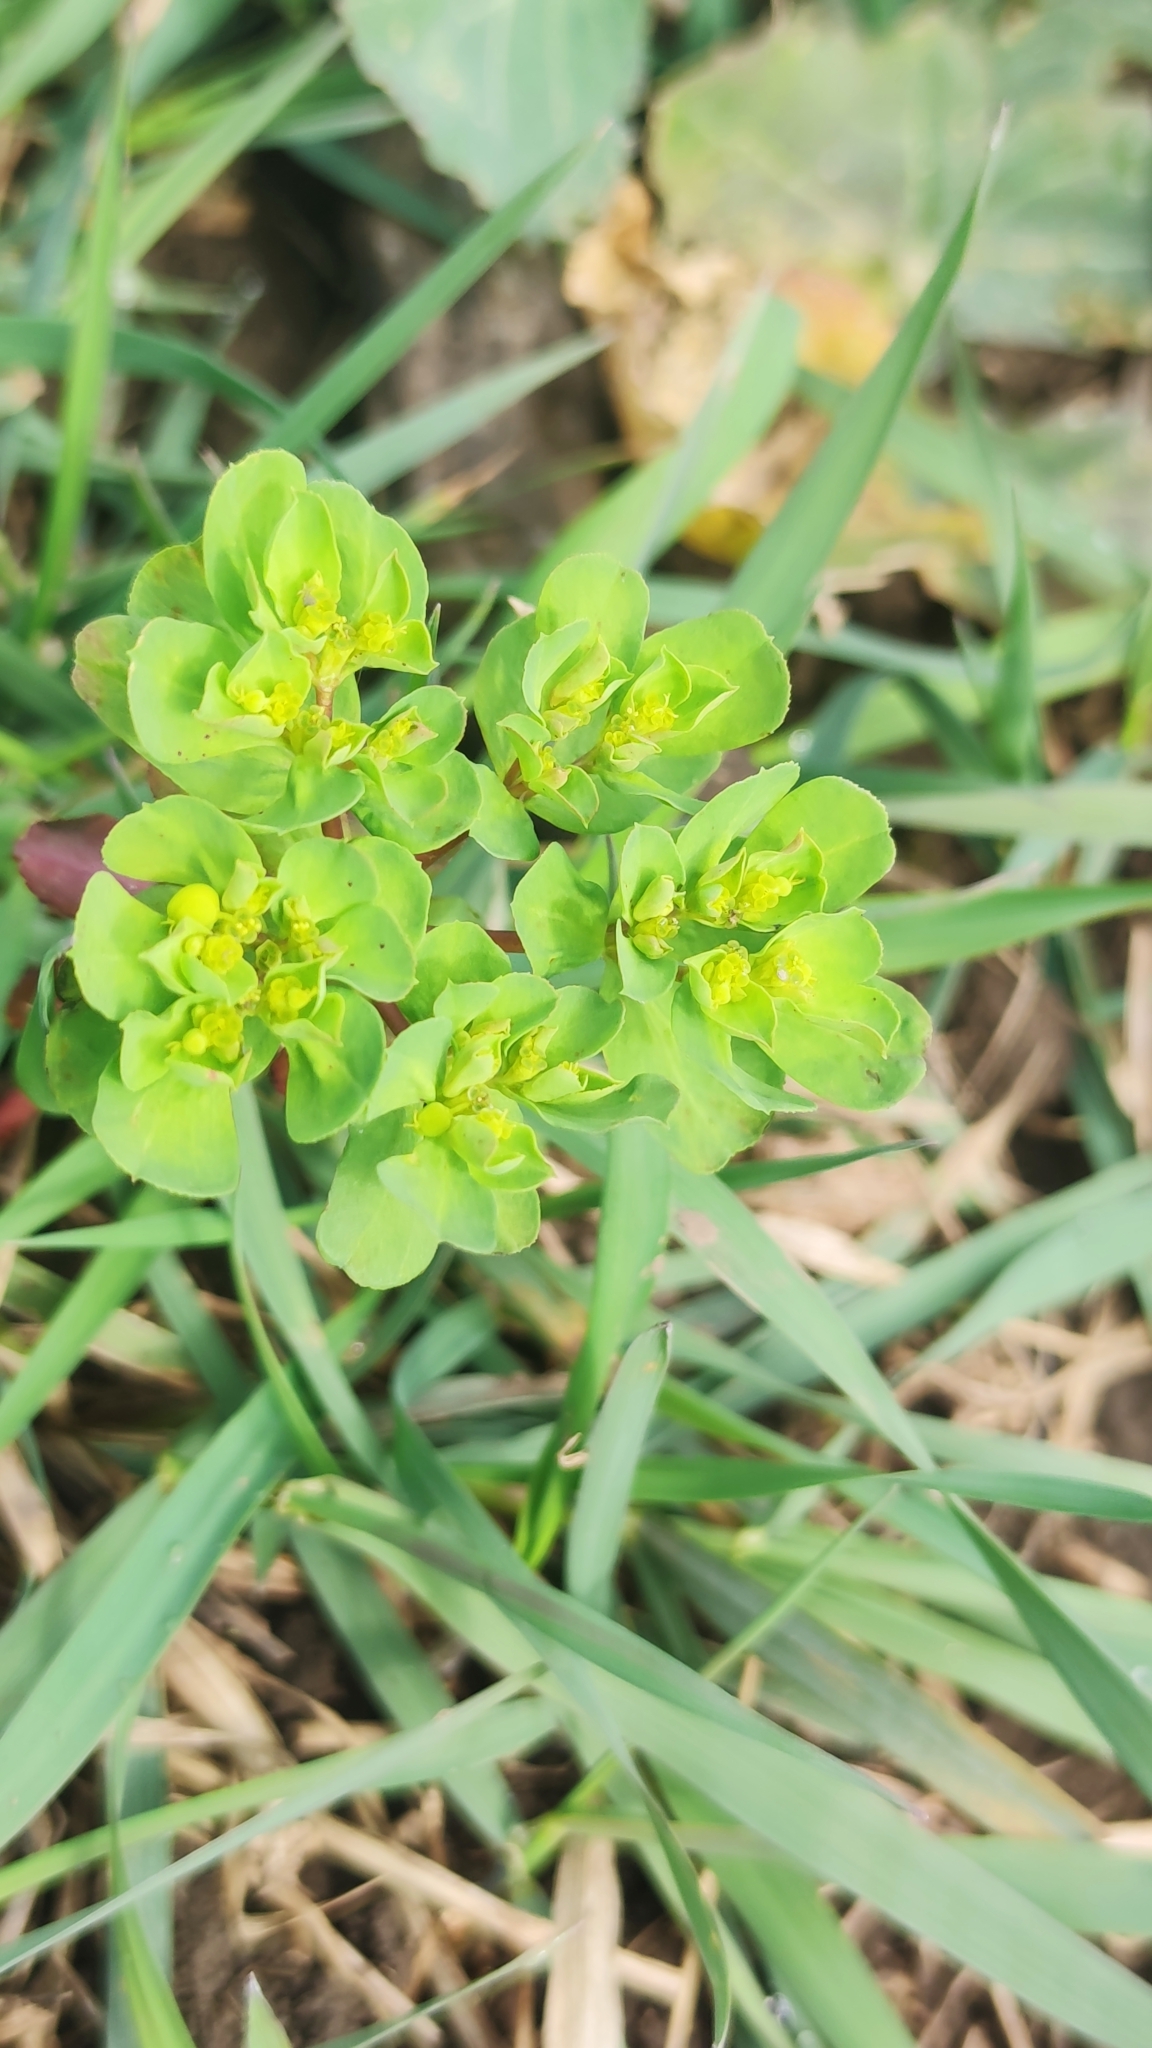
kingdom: Plantae
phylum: Tracheophyta
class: Magnoliopsida
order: Malpighiales
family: Euphorbiaceae
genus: Euphorbia
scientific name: Euphorbia helioscopia
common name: Sun spurge
